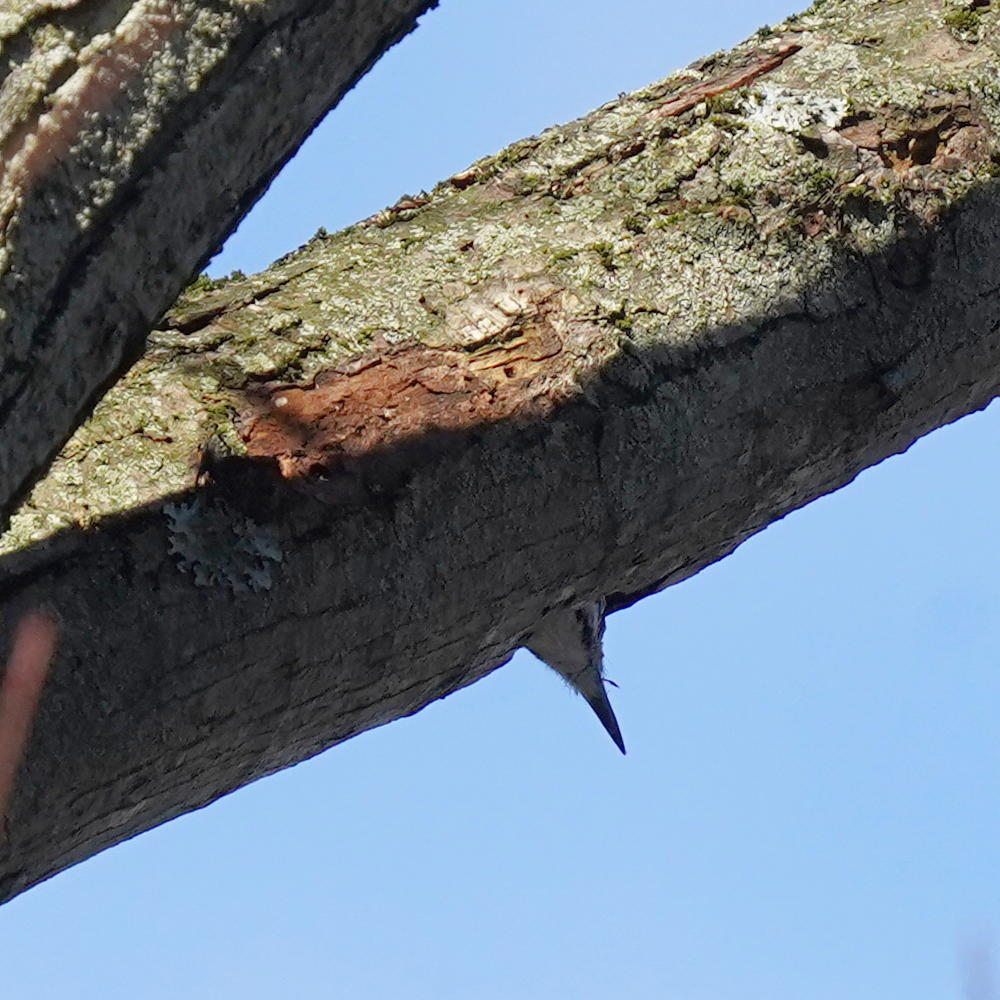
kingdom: Animalia
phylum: Chordata
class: Aves
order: Piciformes
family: Picidae
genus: Leuconotopicus
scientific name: Leuconotopicus villosus
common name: Hairy woodpecker
